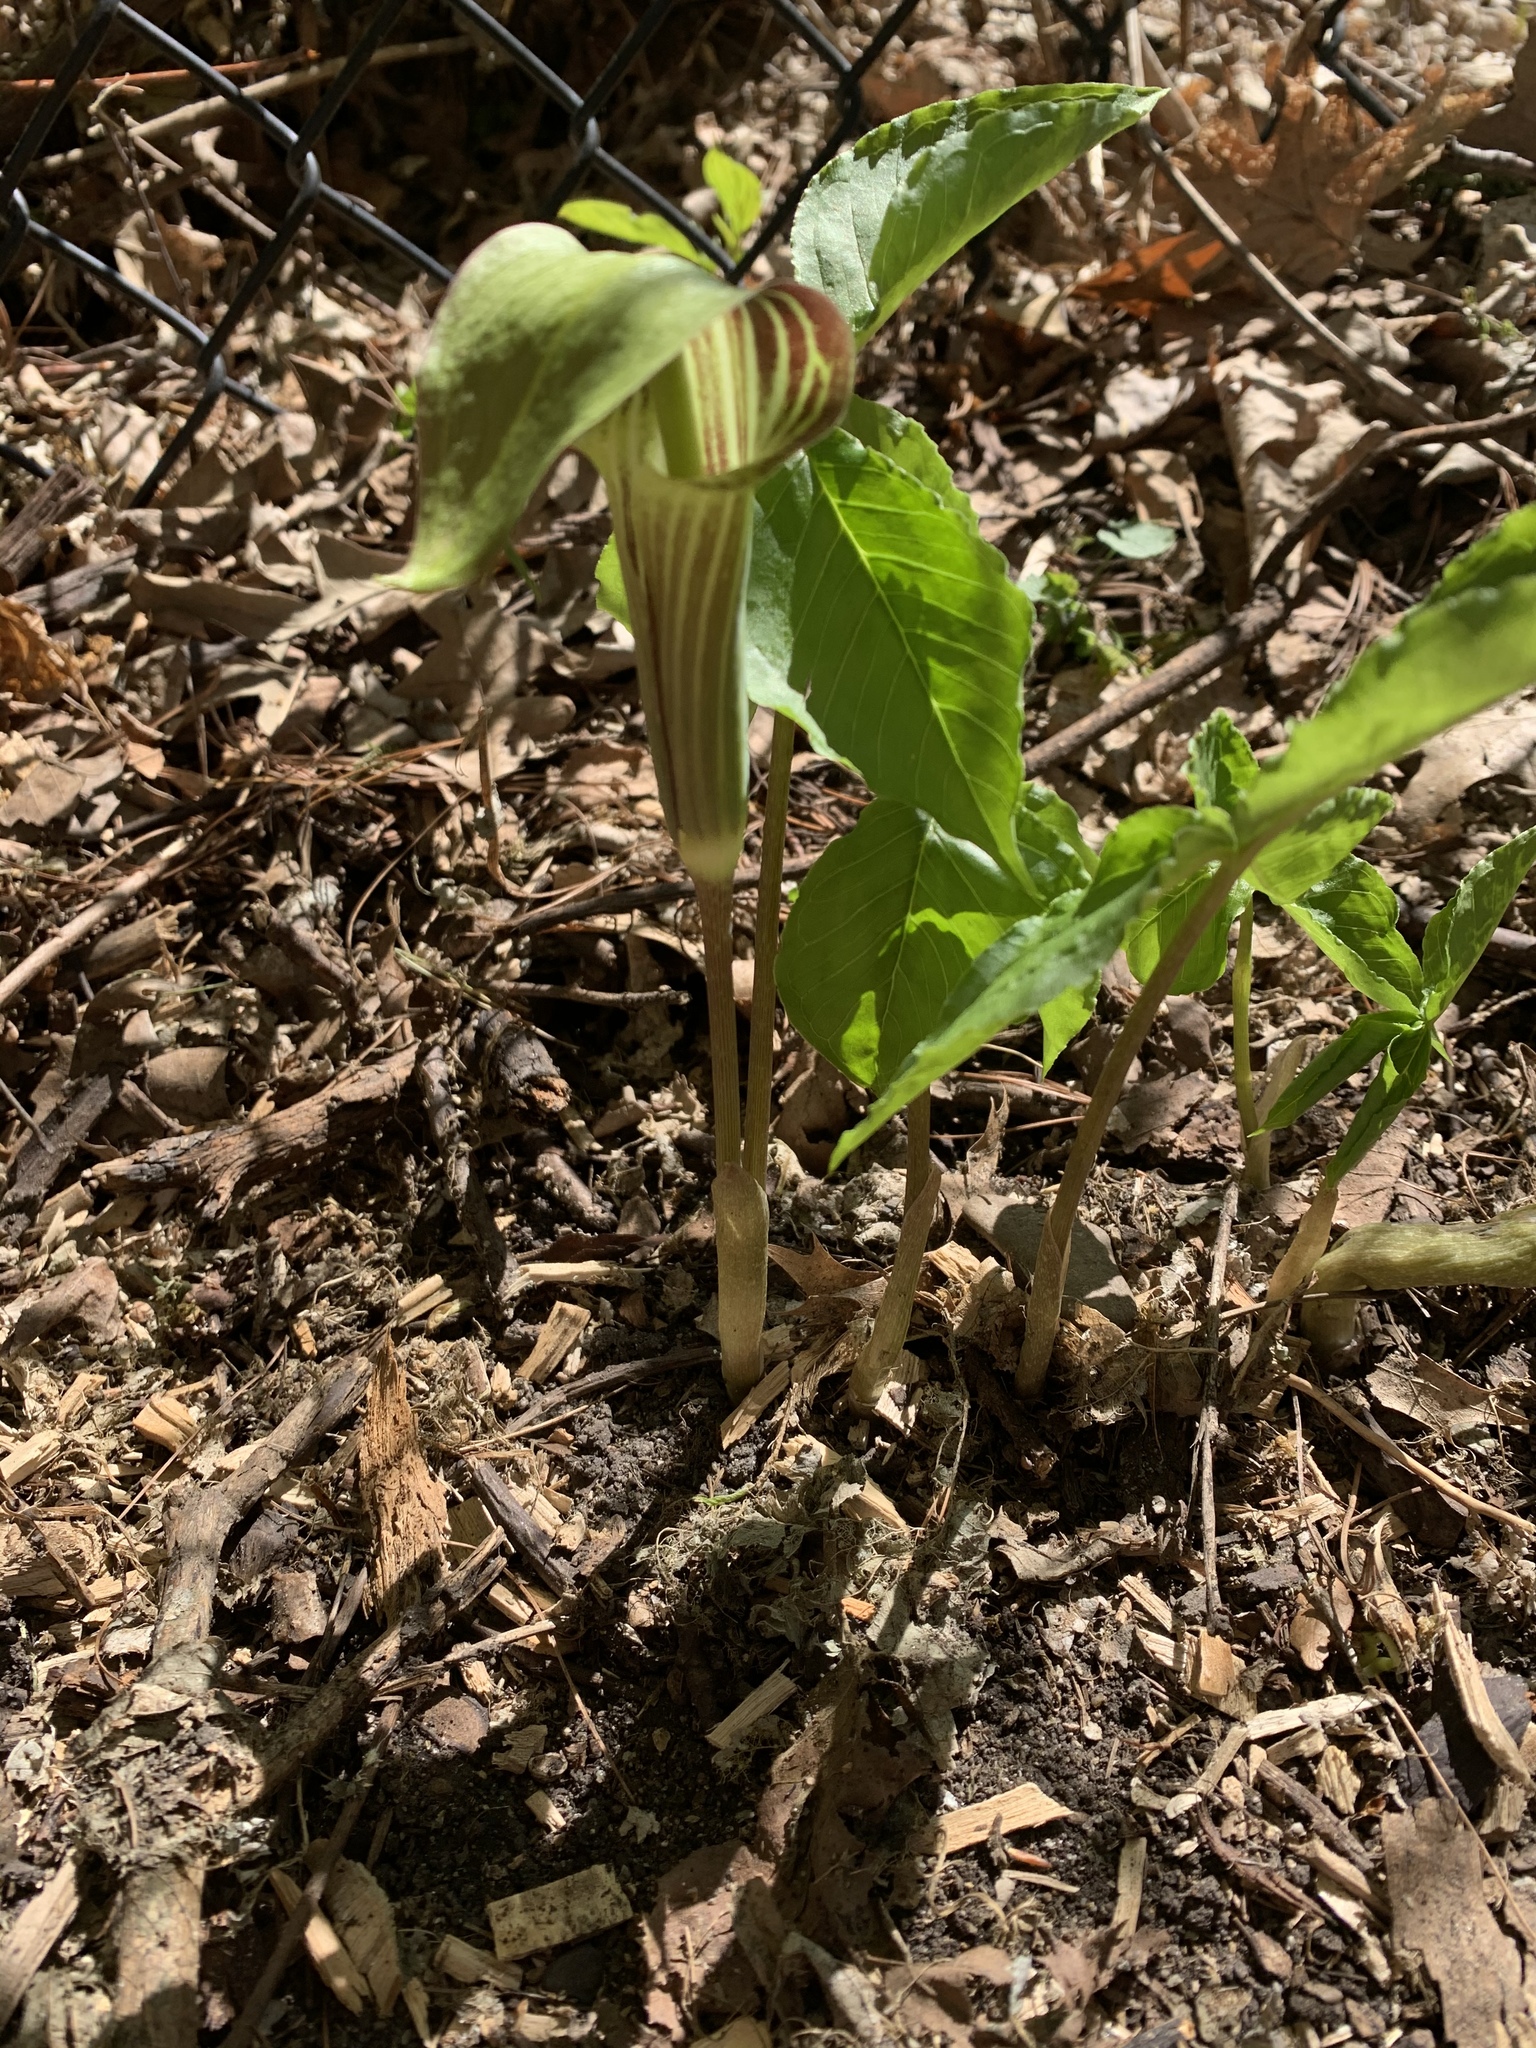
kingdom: Plantae
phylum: Tracheophyta
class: Liliopsida
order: Alismatales
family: Araceae
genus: Arisaema
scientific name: Arisaema triphyllum
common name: Jack-in-the-pulpit
